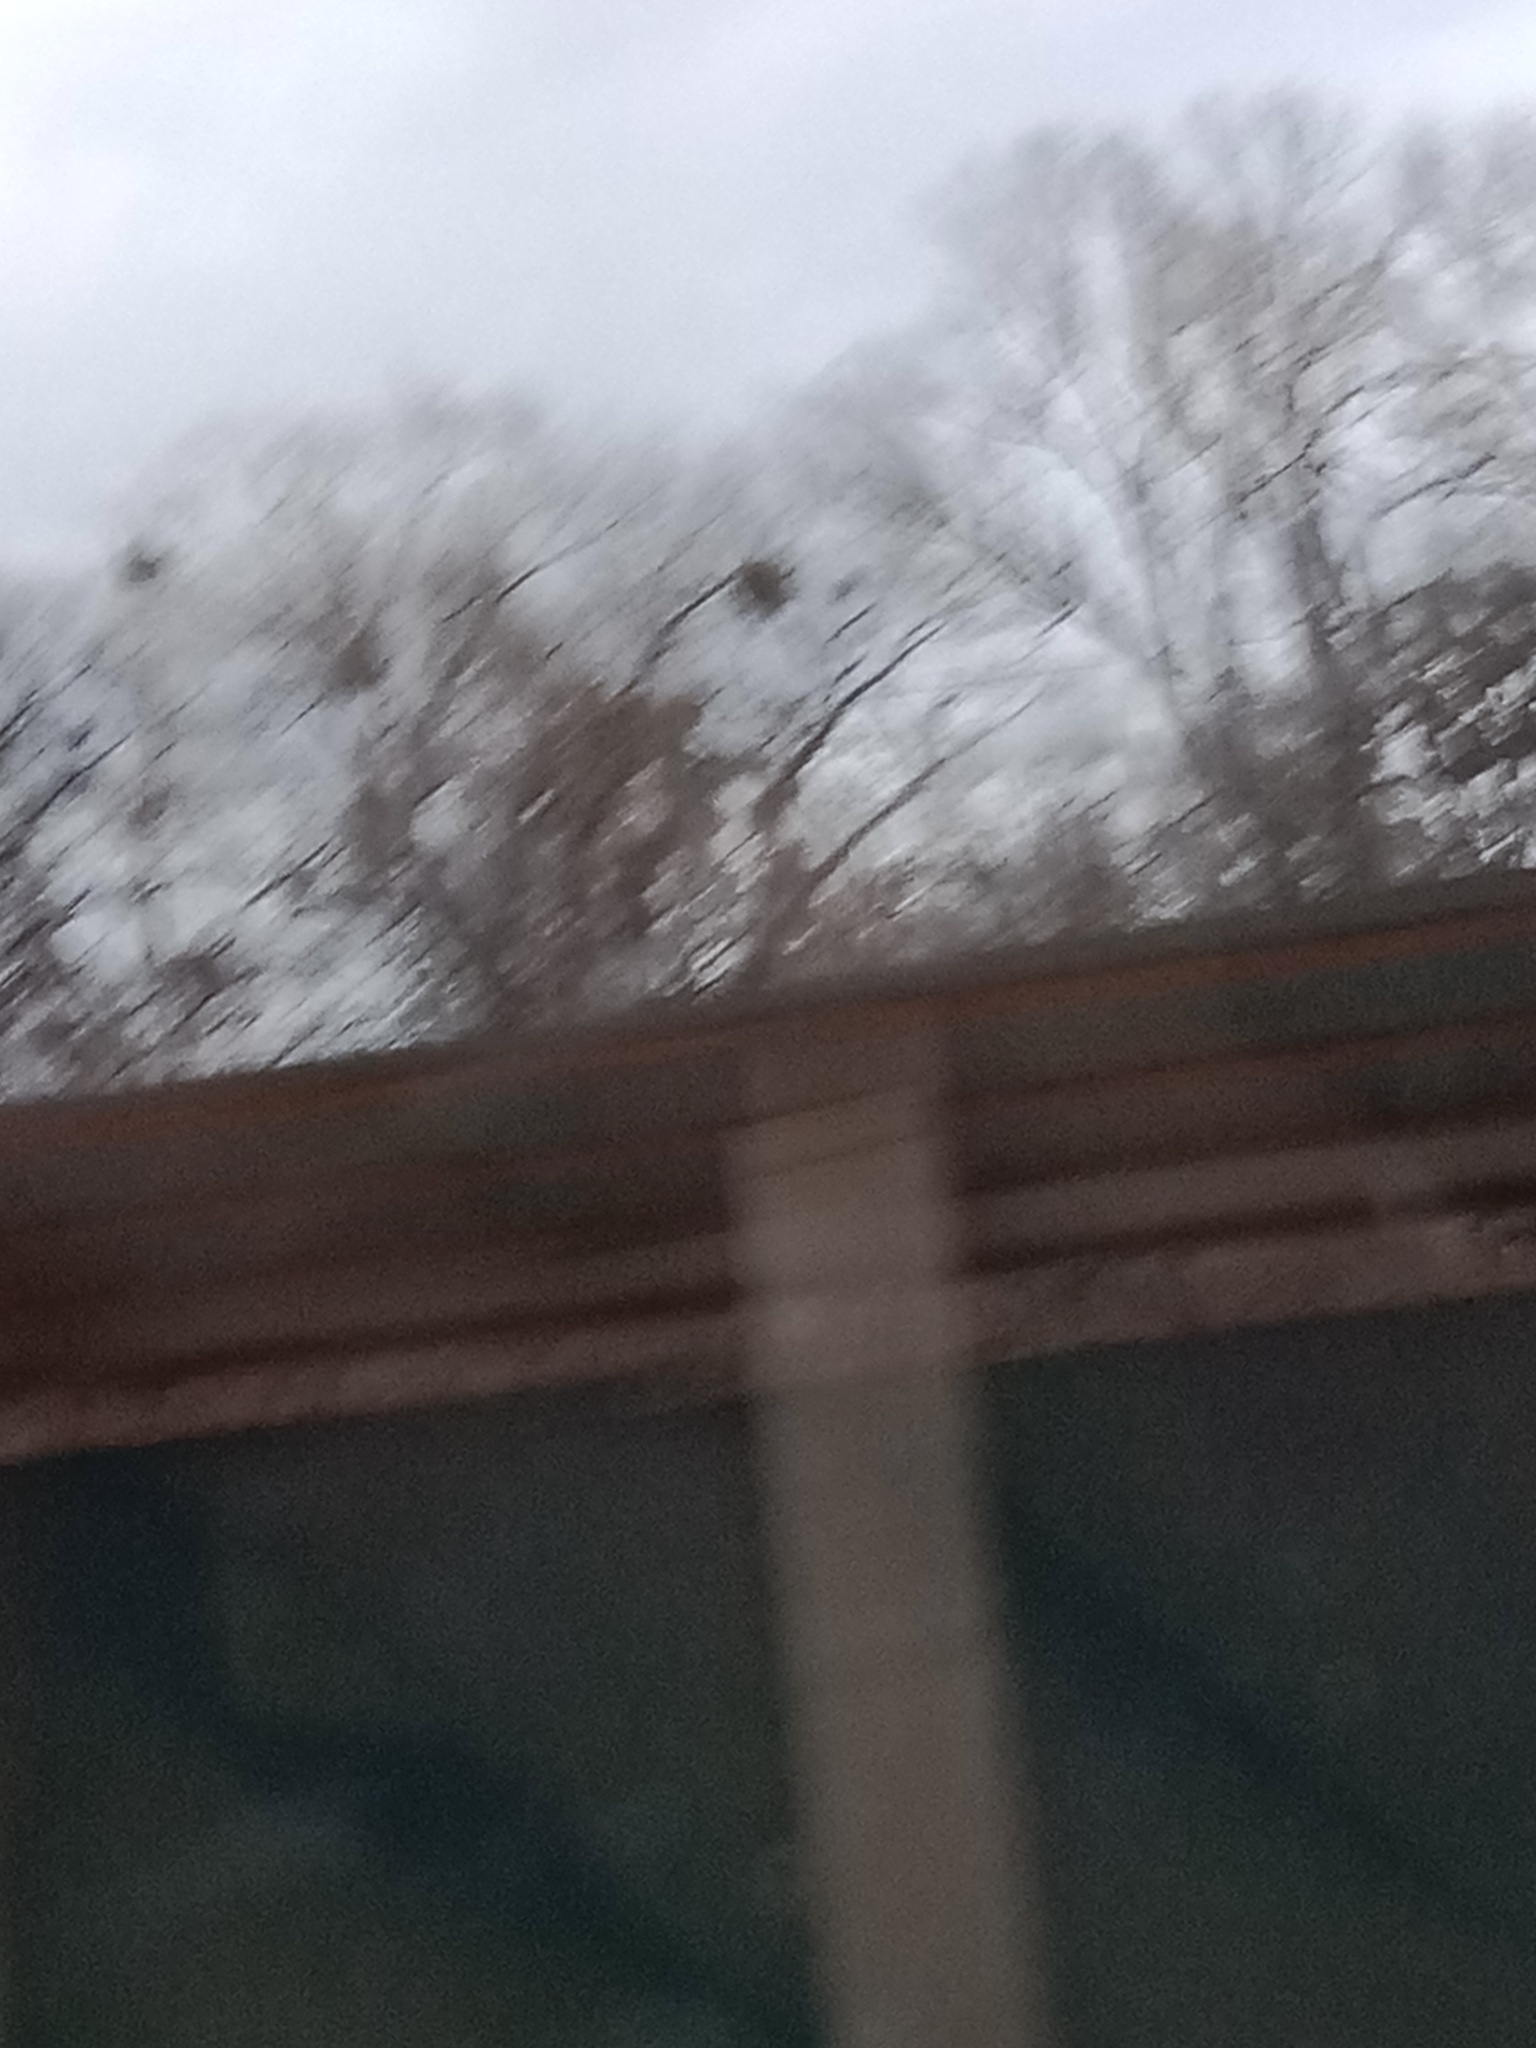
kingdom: Plantae
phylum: Tracheophyta
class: Magnoliopsida
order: Santalales
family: Viscaceae
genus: Viscum
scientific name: Viscum album
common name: Mistletoe
